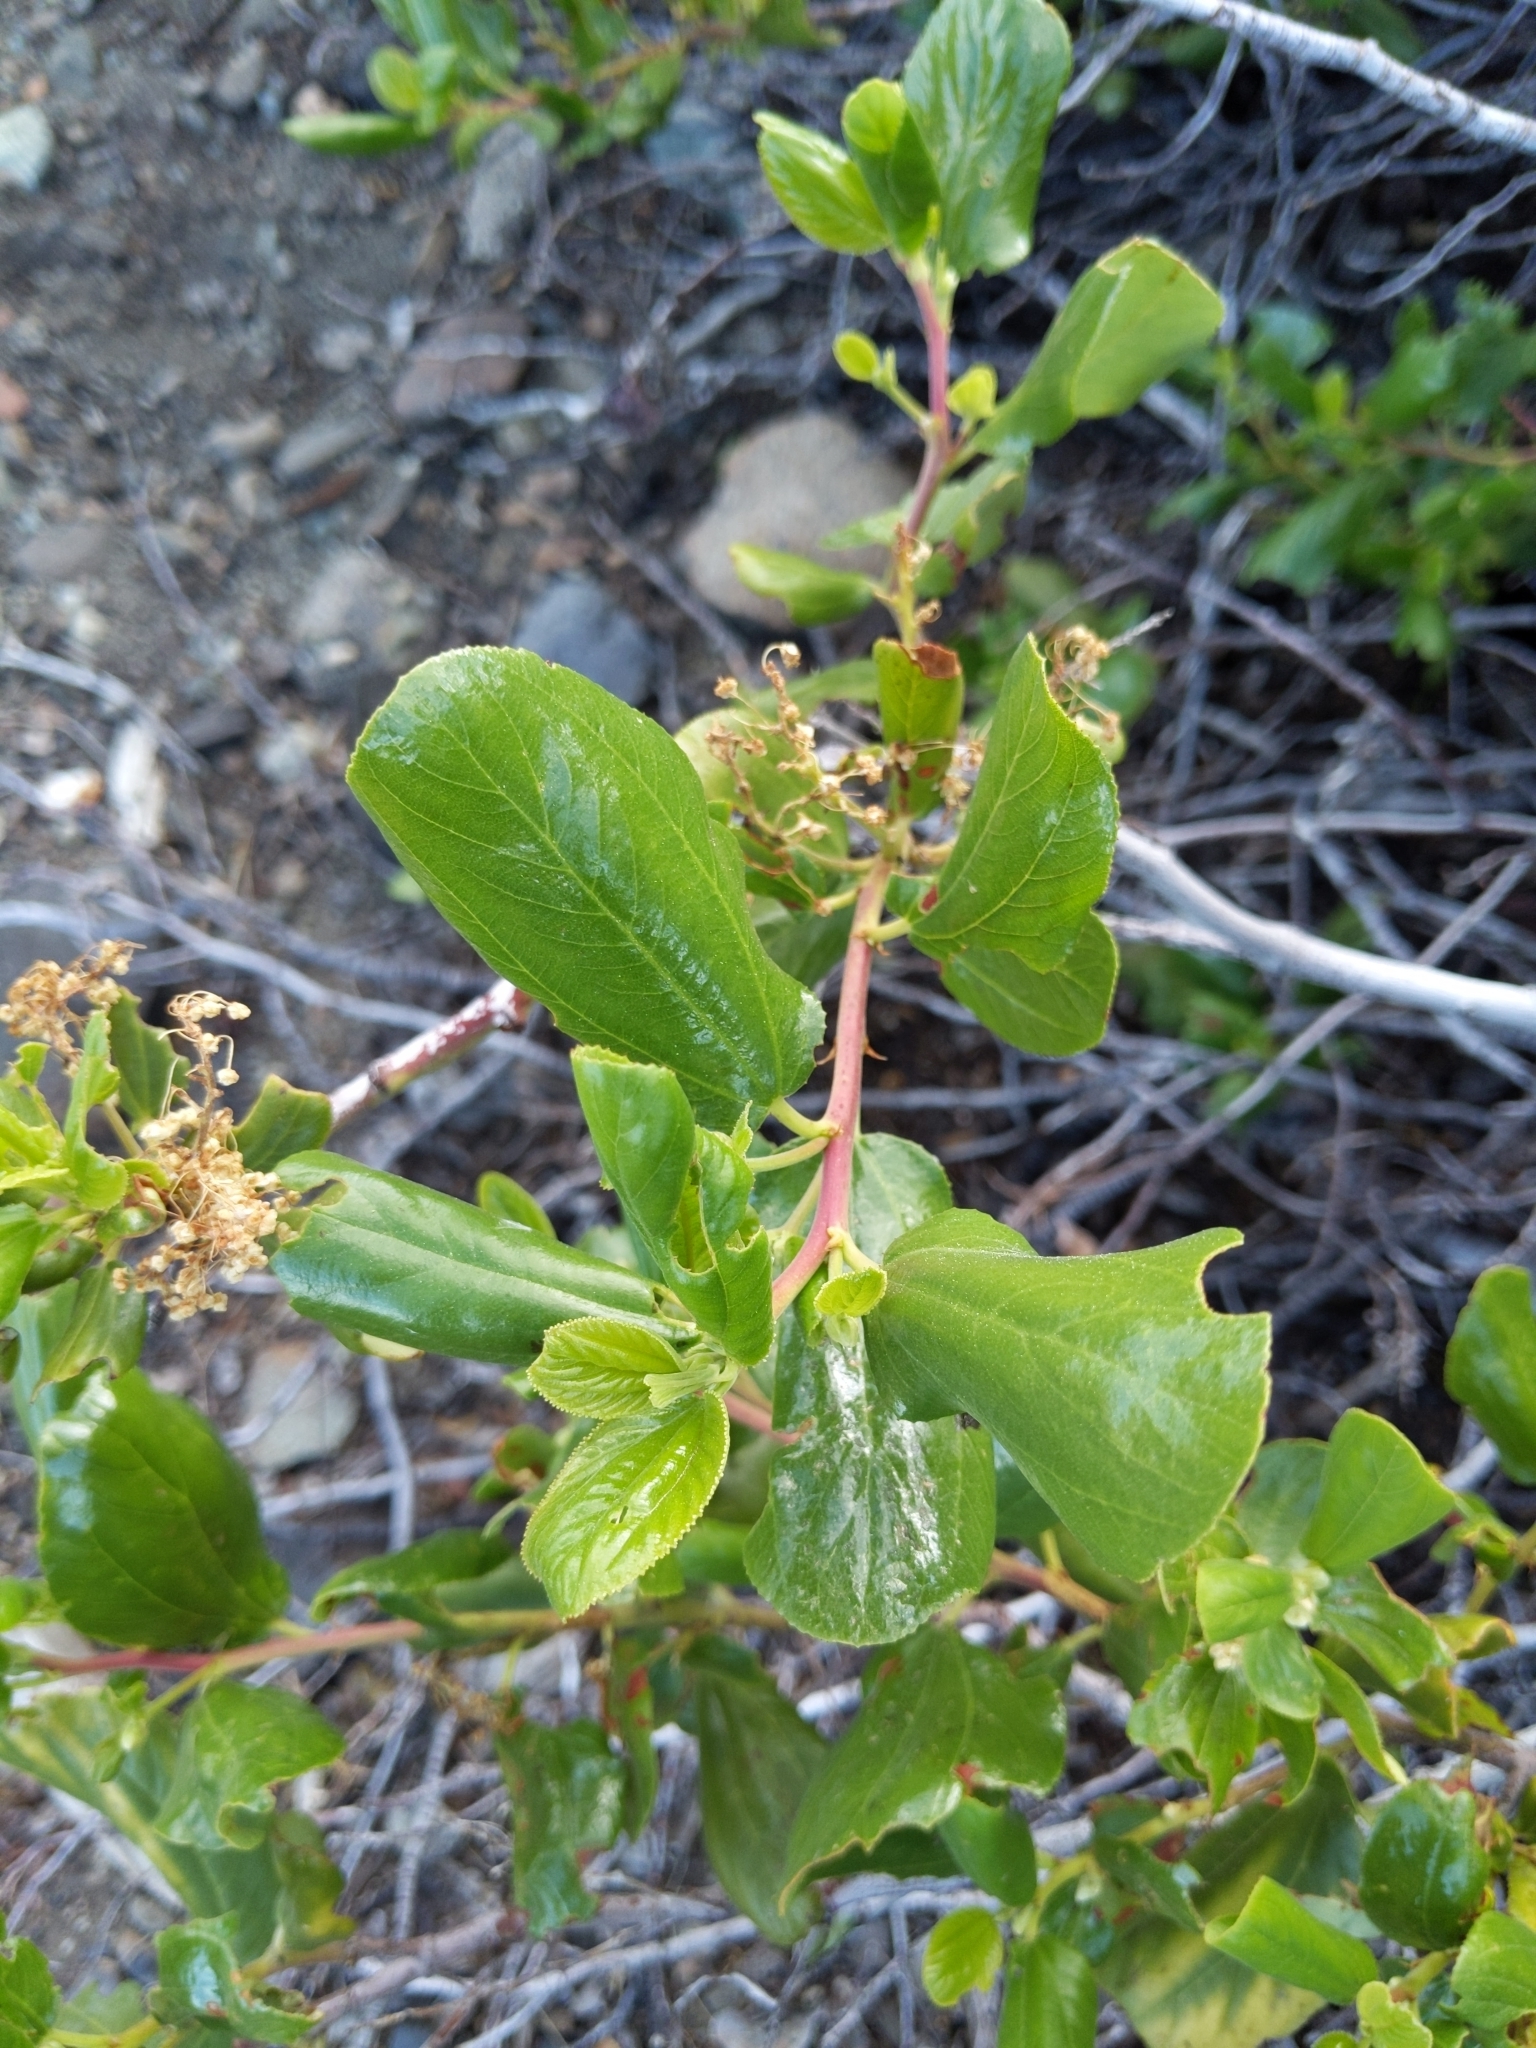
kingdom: Plantae
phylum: Tracheophyta
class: Magnoliopsida
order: Rosales
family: Rhamnaceae
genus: Ceanothus
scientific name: Ceanothus velutinus
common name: Snowbrush
